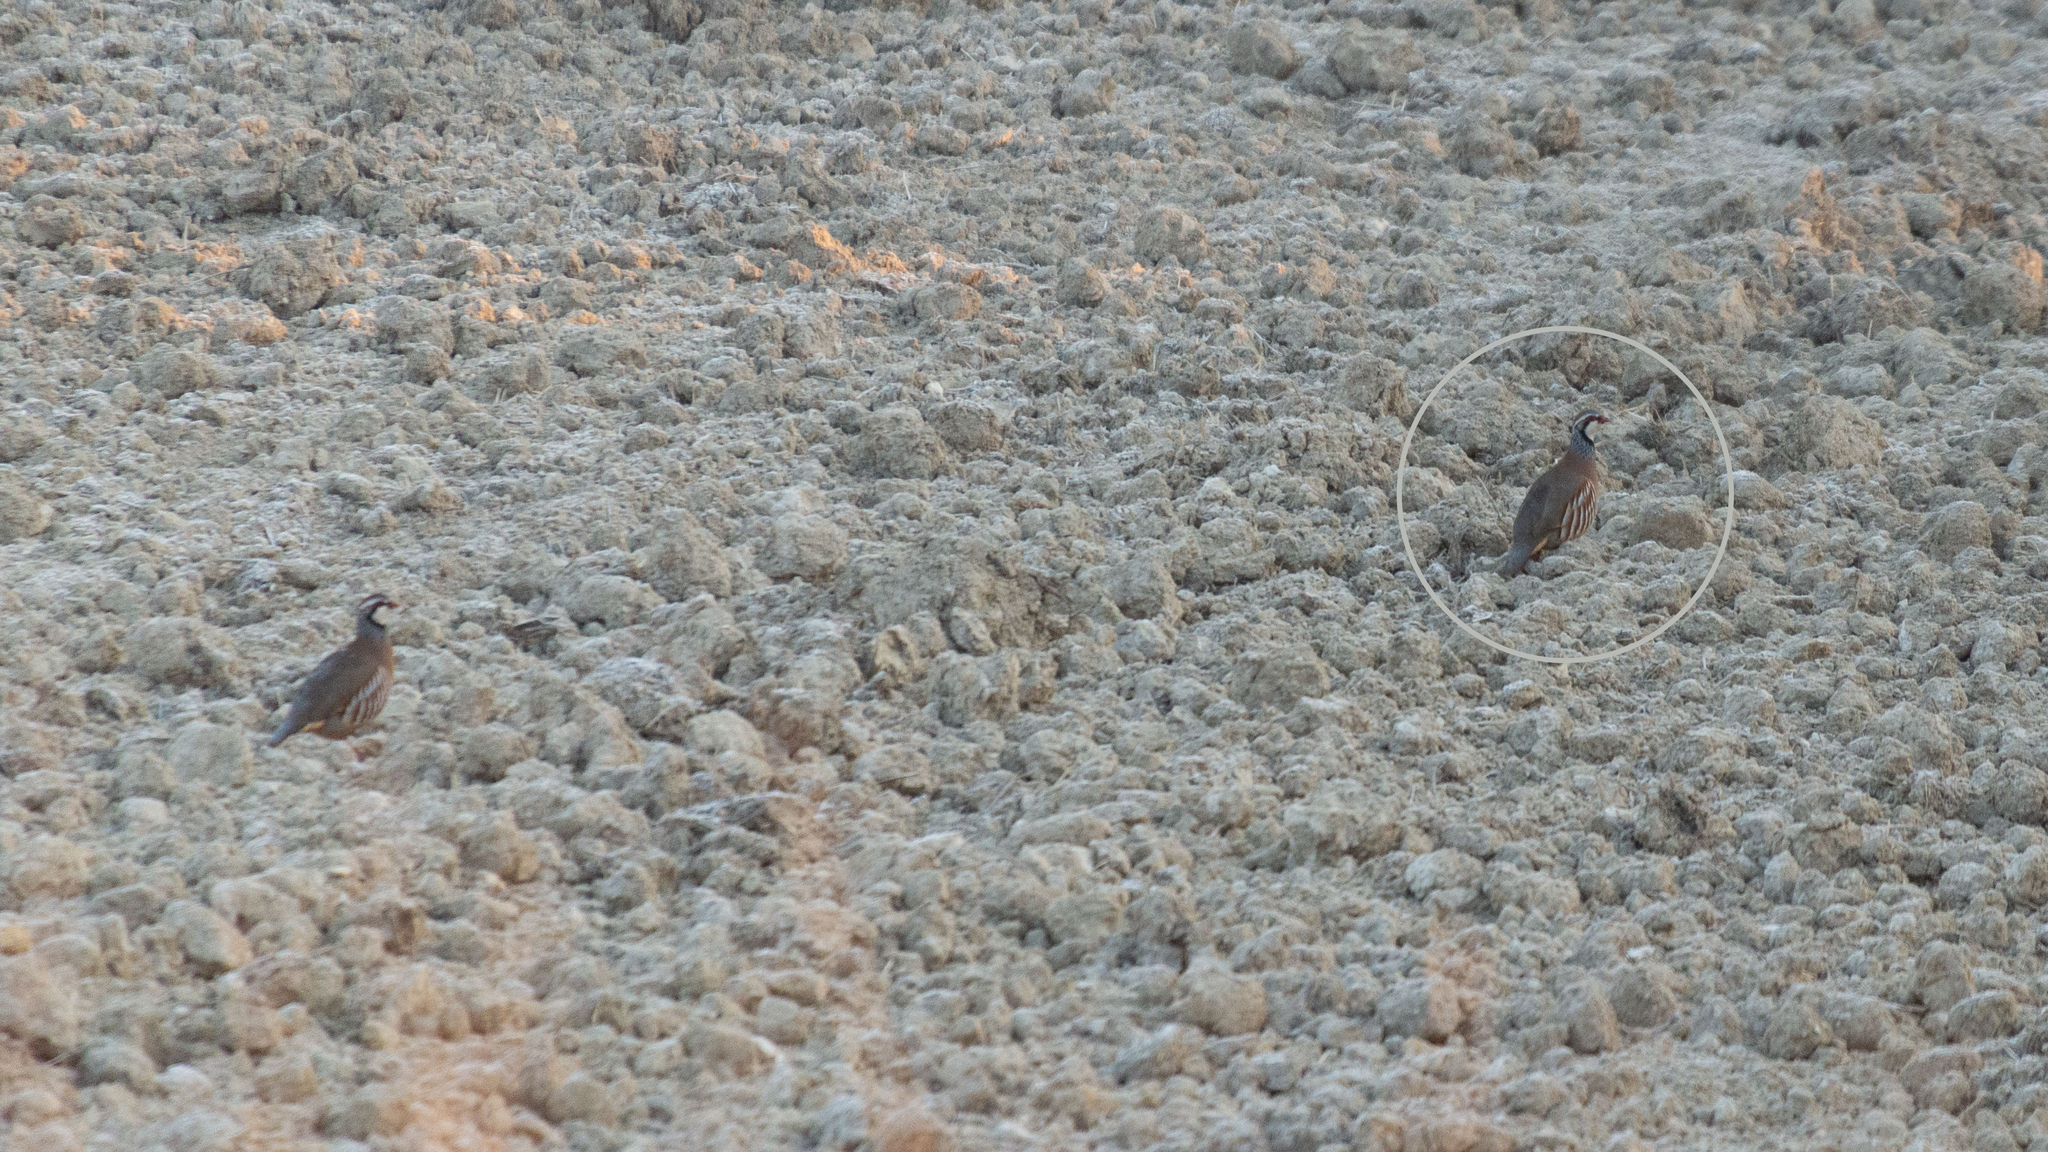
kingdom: Animalia
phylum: Chordata
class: Aves
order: Galliformes
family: Phasianidae
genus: Alectoris
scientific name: Alectoris rufa
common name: Red-legged partridge
